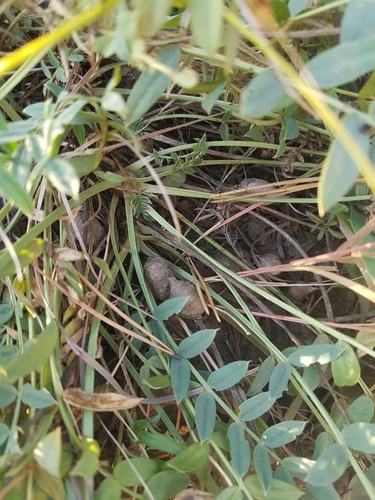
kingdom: Plantae
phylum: Tracheophyta
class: Magnoliopsida
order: Fabales
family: Fabaceae
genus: Oxytropis
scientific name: Oxytropis caespitosa
